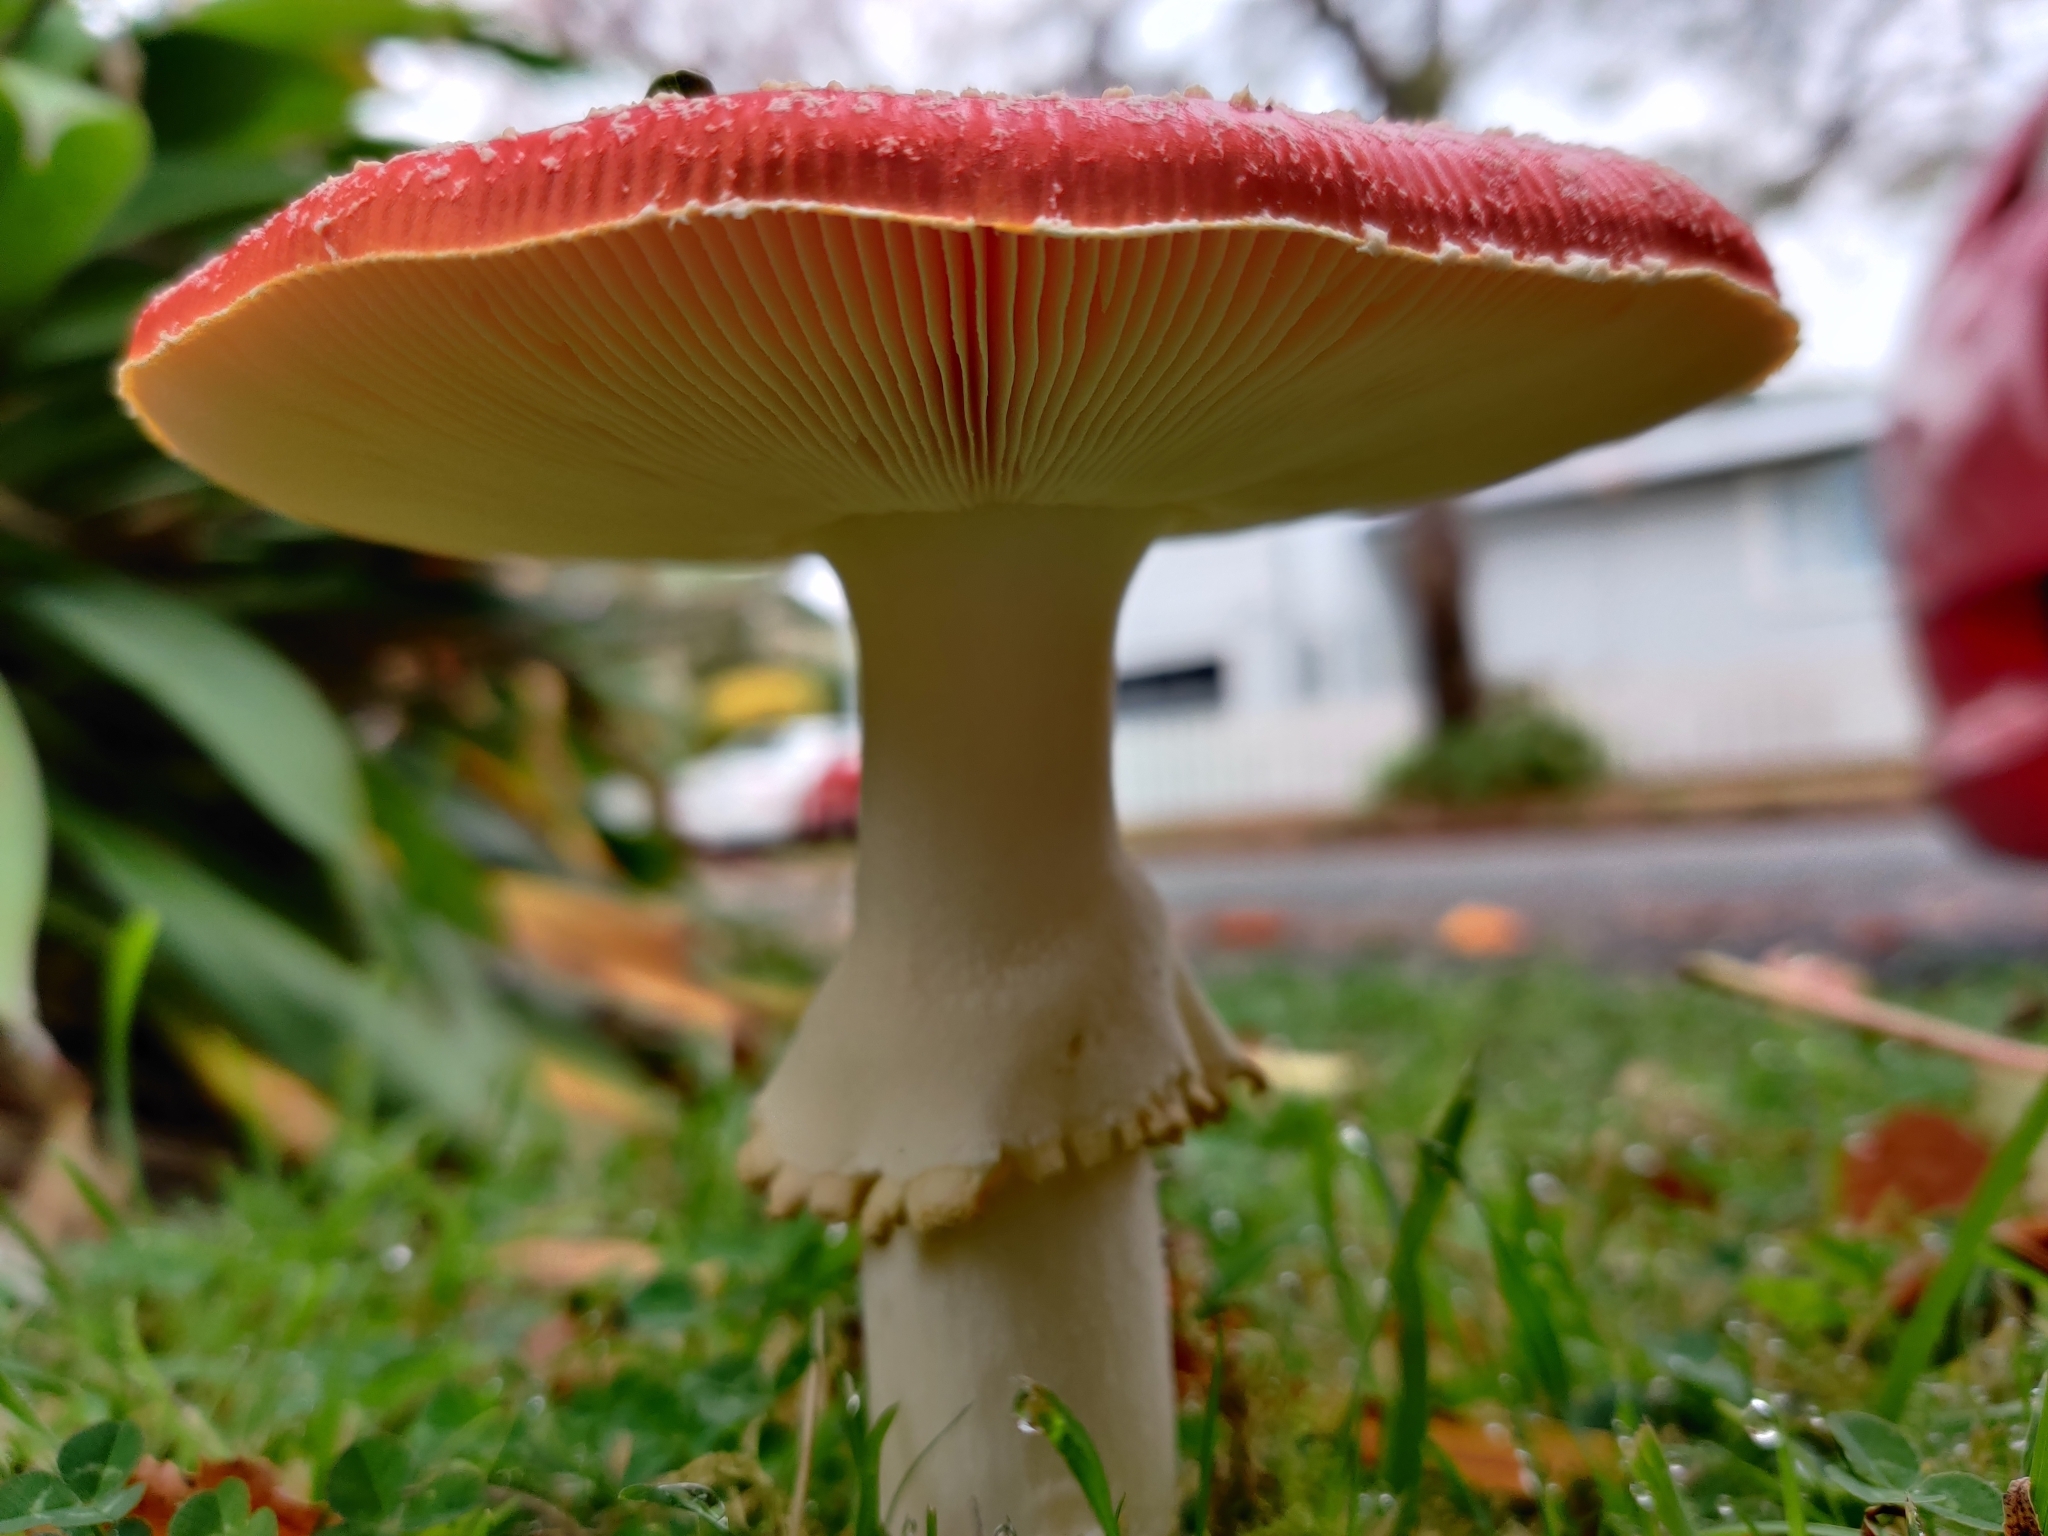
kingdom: Fungi
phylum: Basidiomycota
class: Agaricomycetes
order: Agaricales
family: Amanitaceae
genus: Amanita
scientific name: Amanita muscaria
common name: Fly agaric
